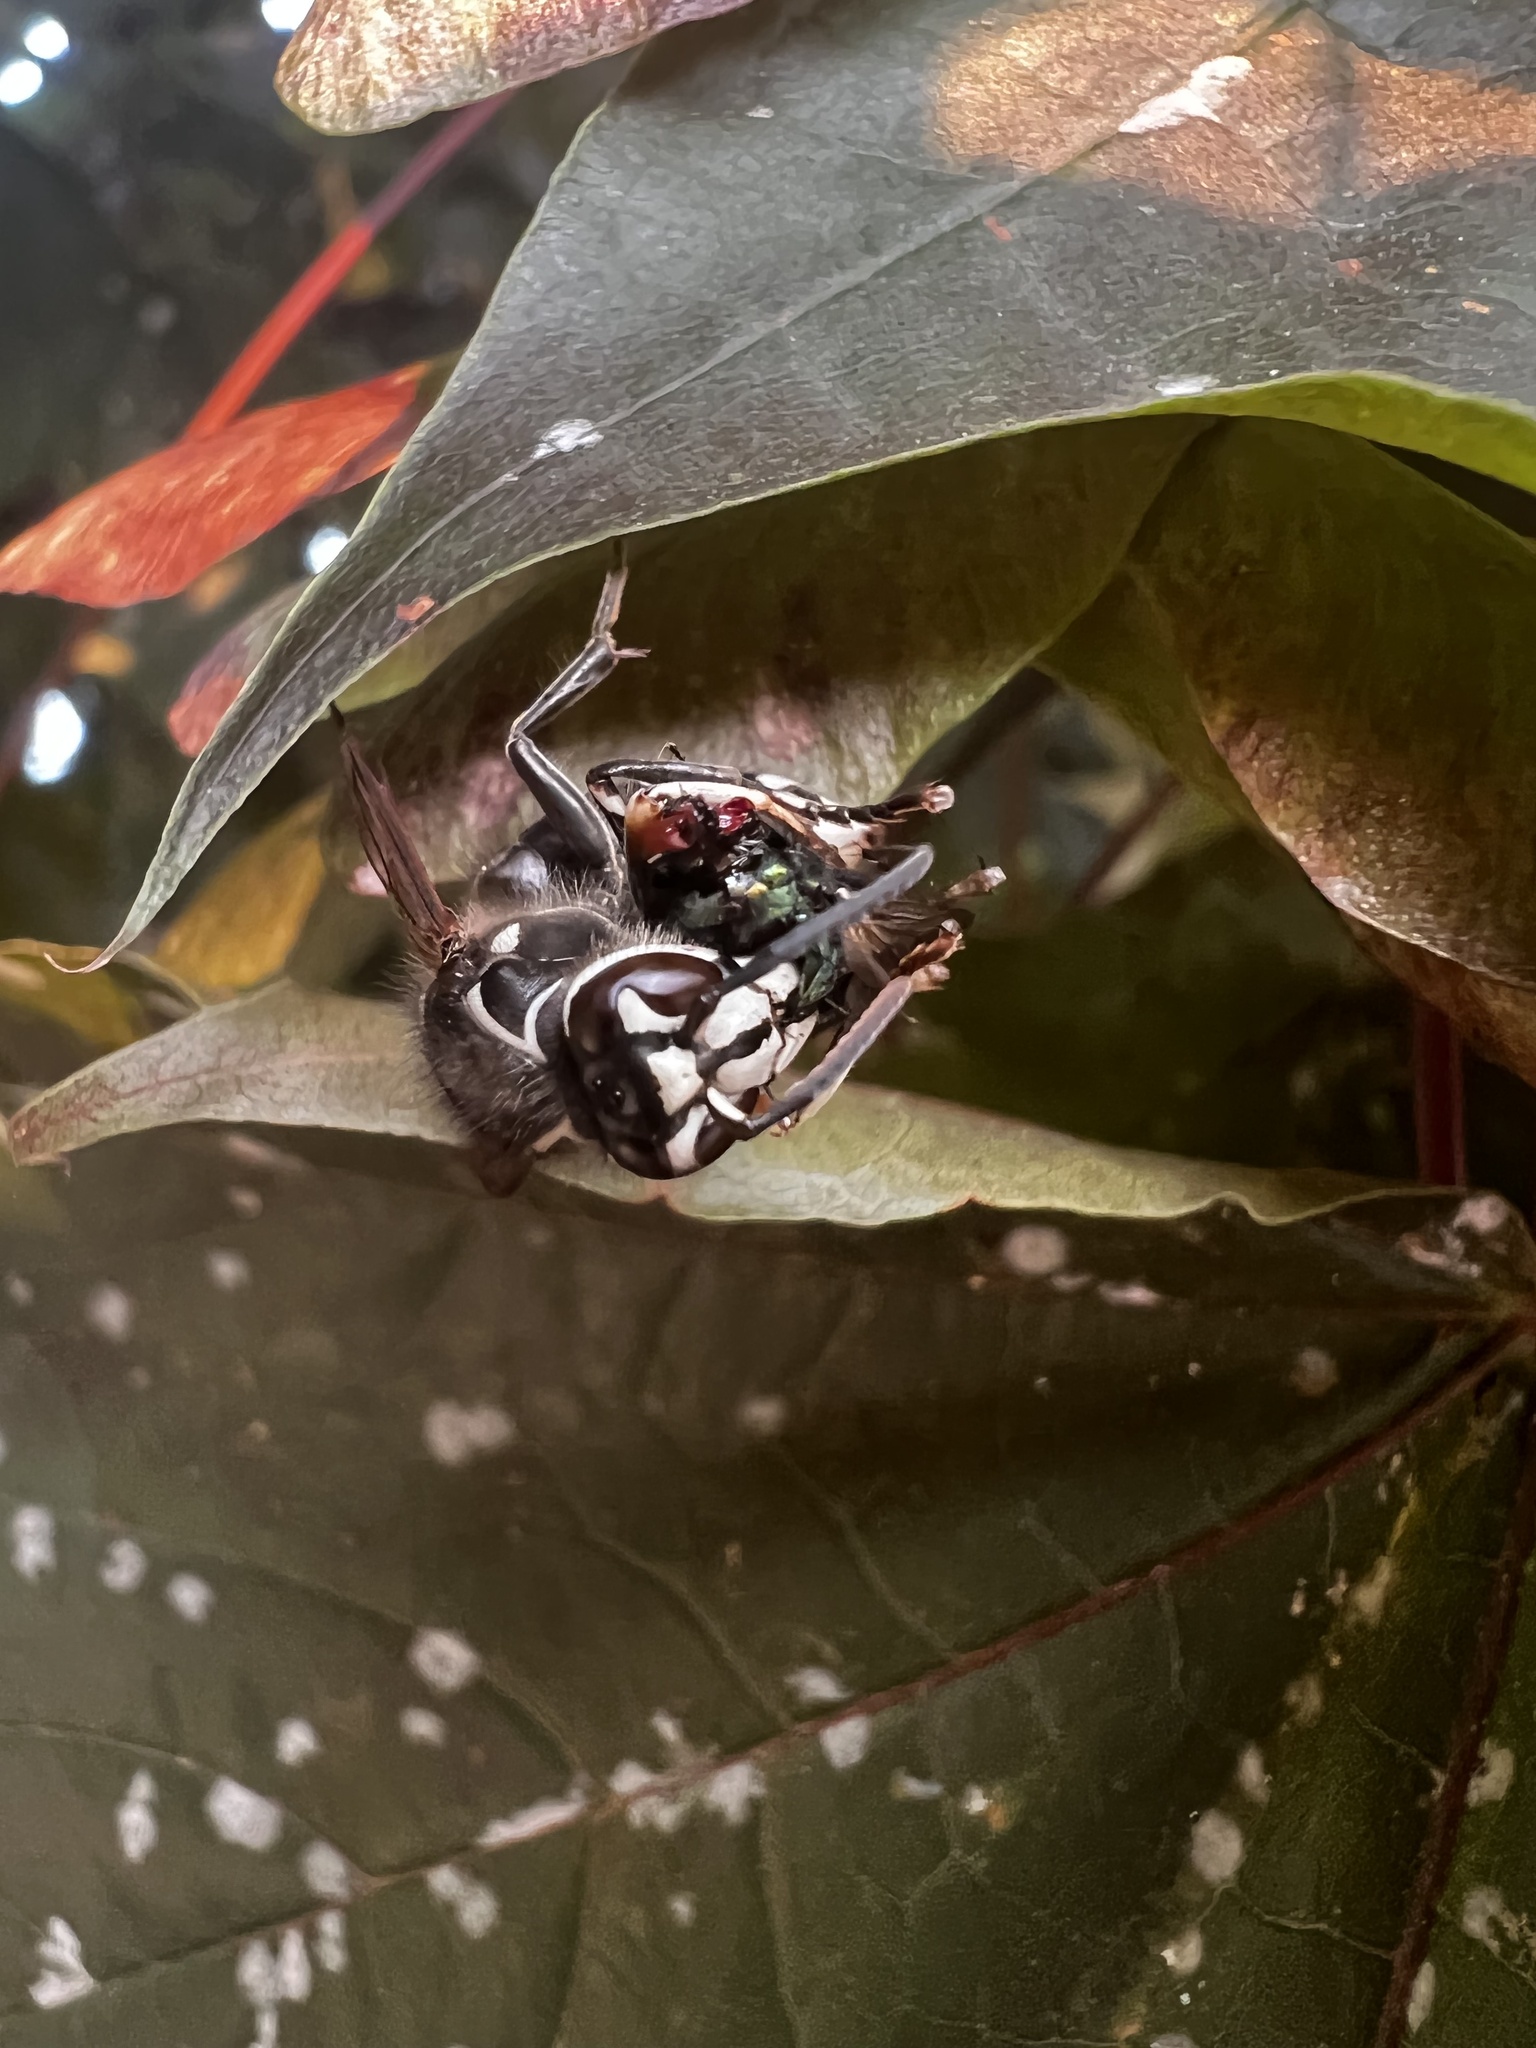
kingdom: Animalia
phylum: Arthropoda
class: Insecta
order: Hymenoptera
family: Vespidae
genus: Dolichovespula
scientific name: Dolichovespula maculata
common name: Bald-faced hornet
